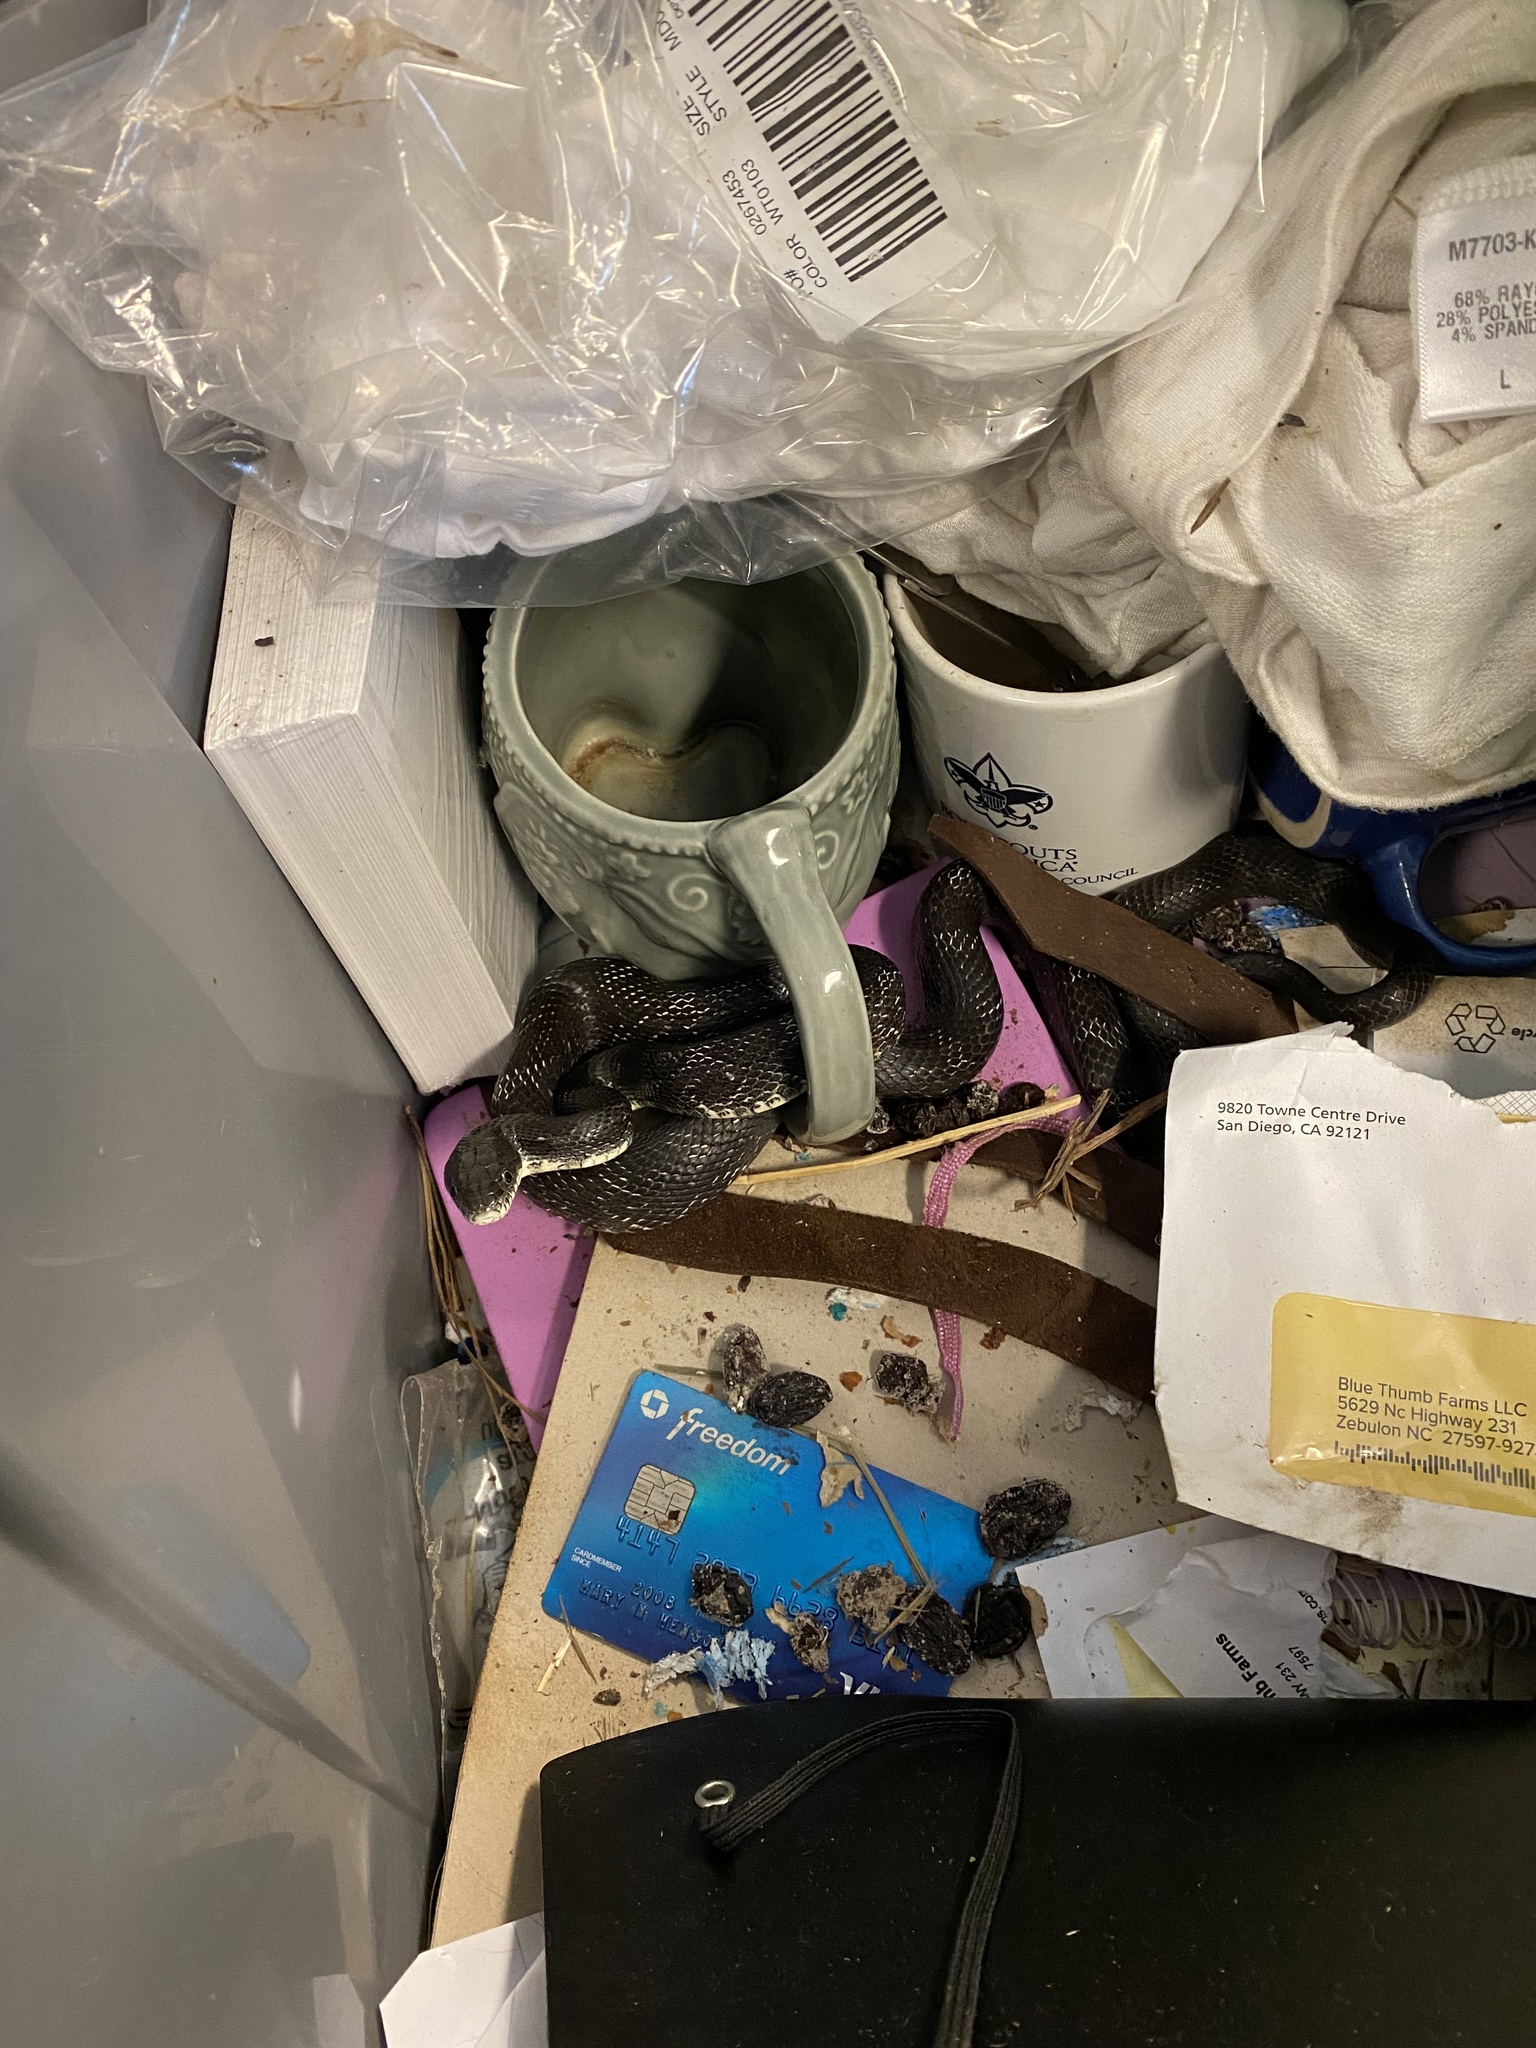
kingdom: Animalia
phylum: Chordata
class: Squamata
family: Colubridae
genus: Pantherophis
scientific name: Pantherophis alleghaniensis
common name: Eastern rat snake
